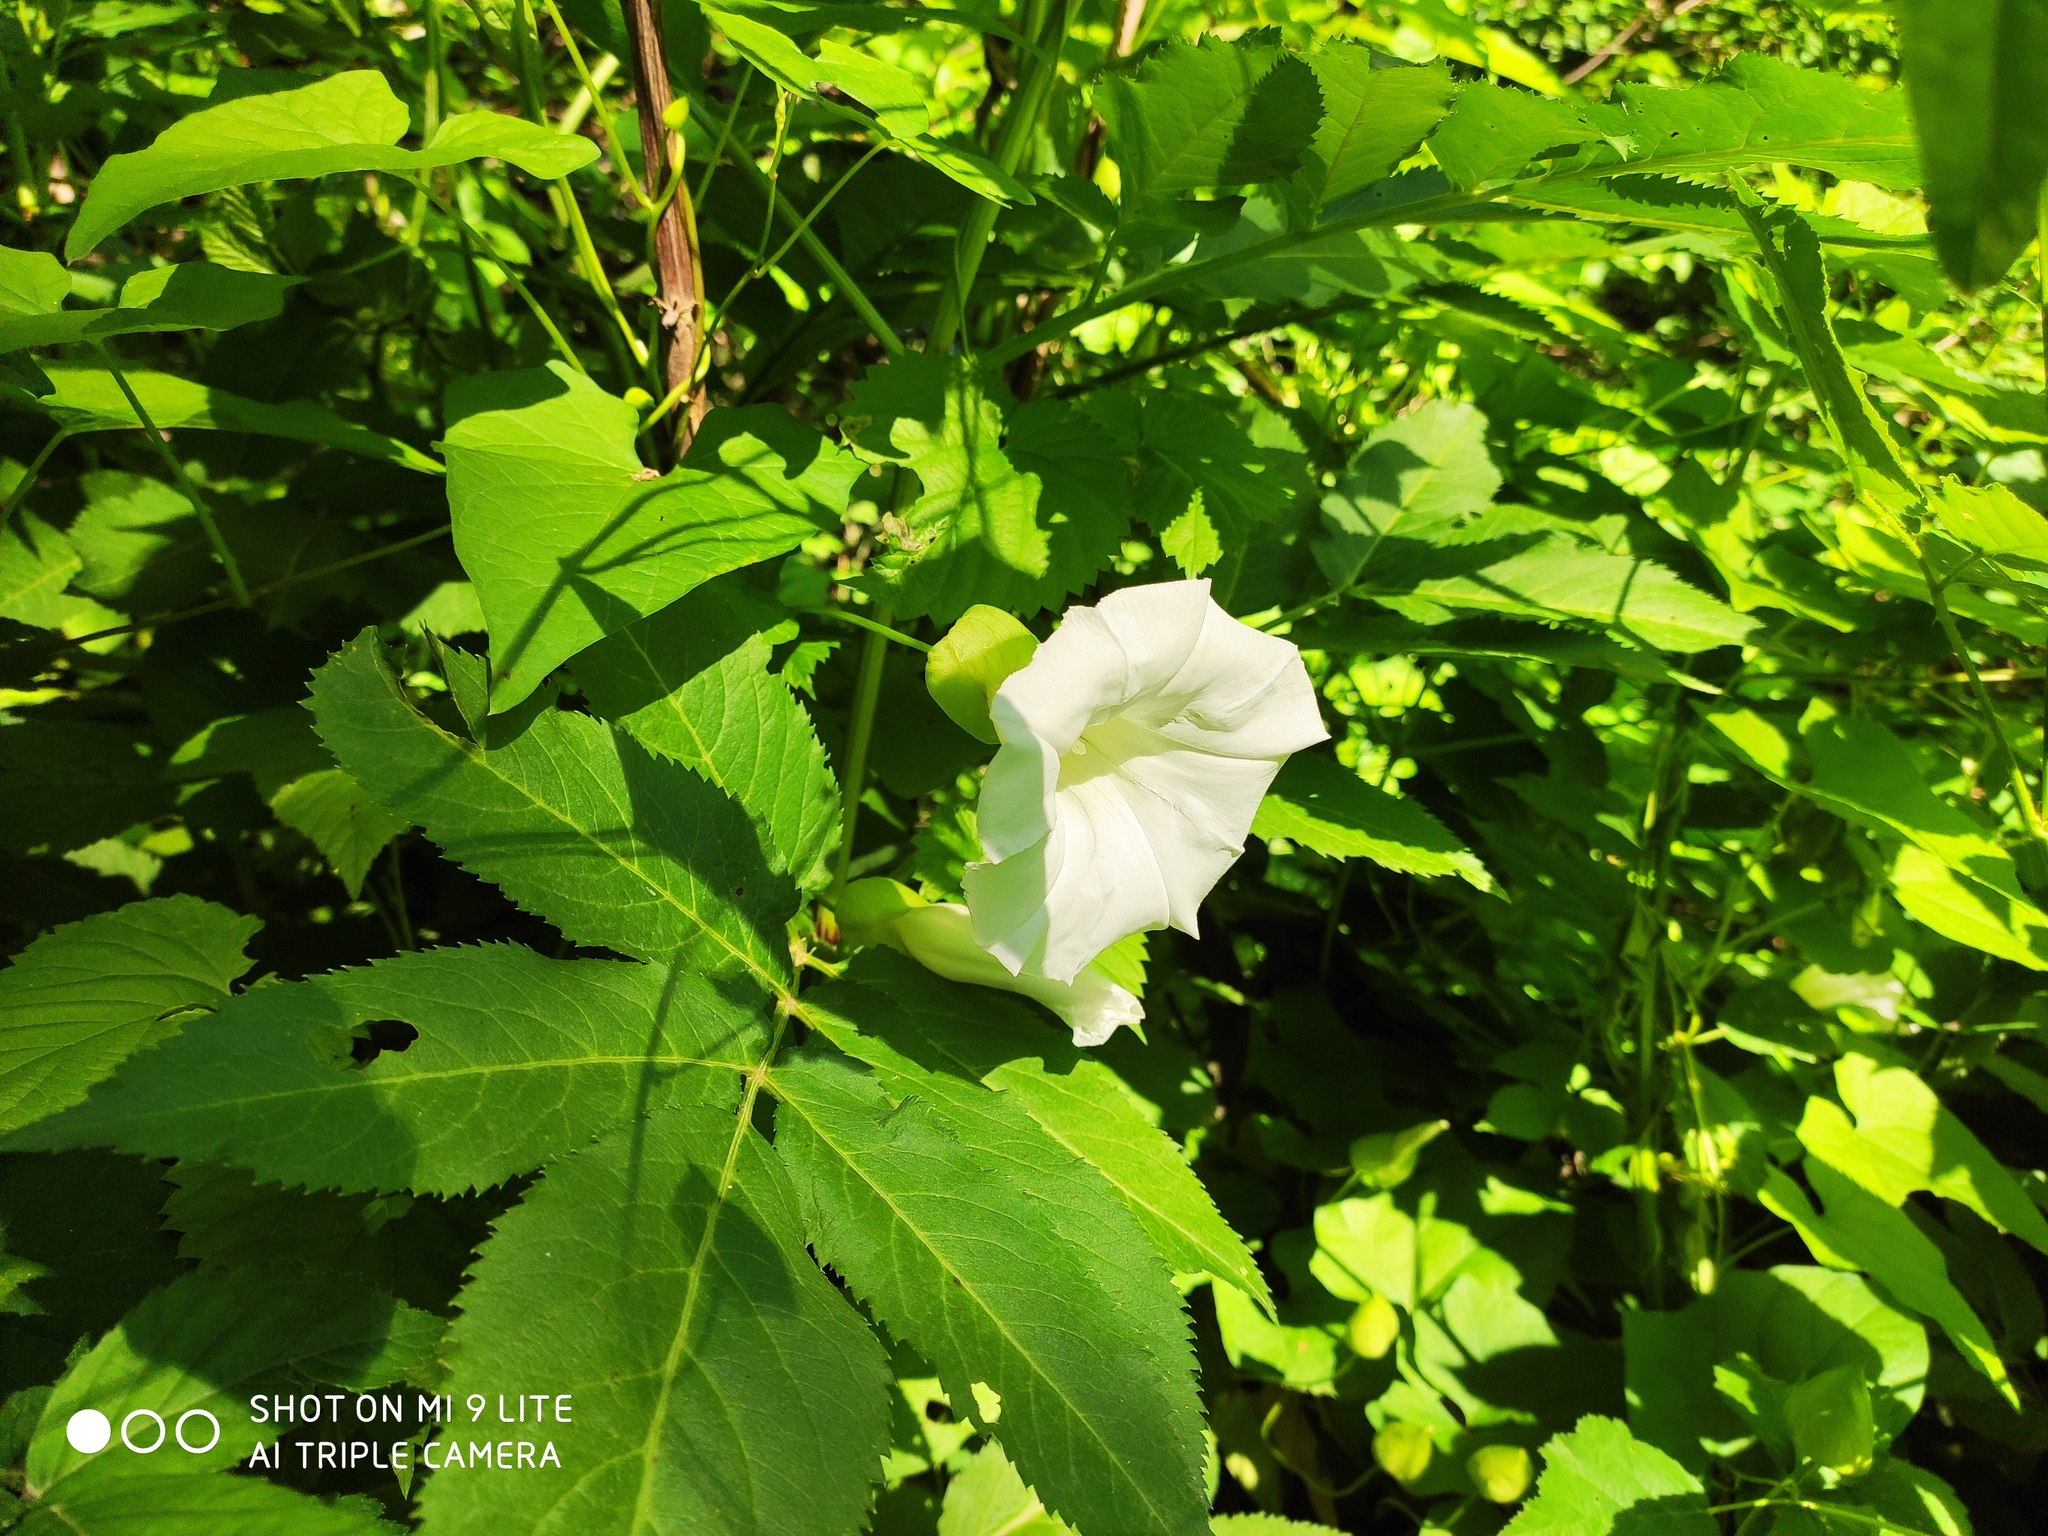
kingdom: Plantae
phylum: Tracheophyta
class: Magnoliopsida
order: Solanales
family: Convolvulaceae
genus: Calystegia
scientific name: Calystegia silvatica
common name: Large bindweed
